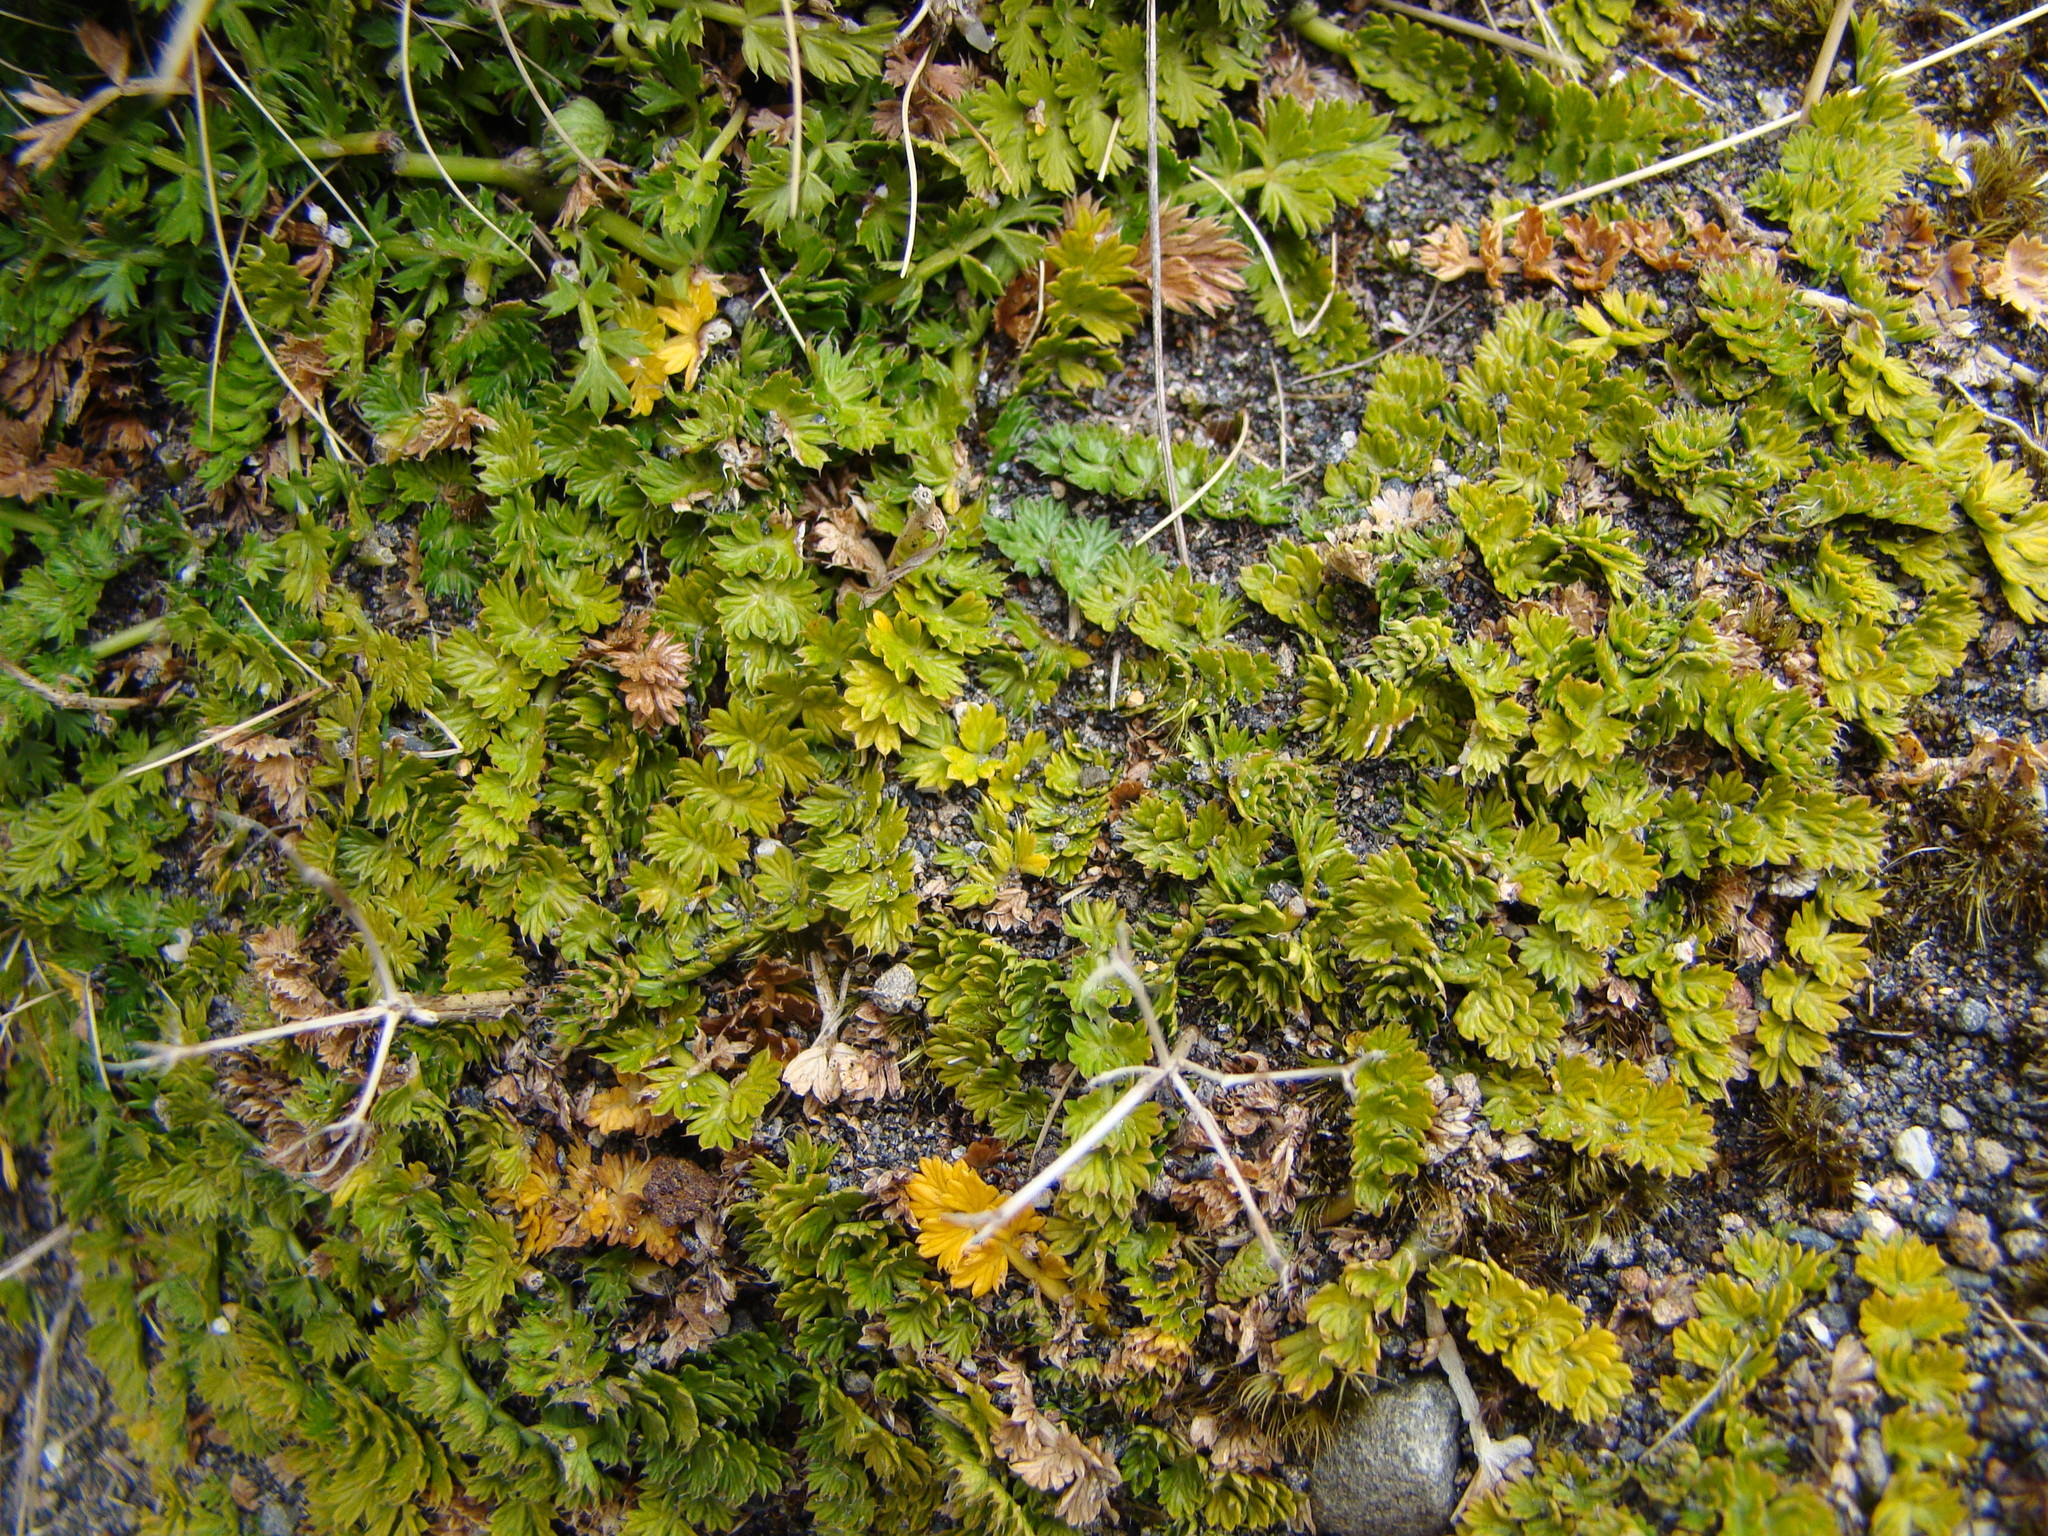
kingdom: Plantae
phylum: Tracheophyta
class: Magnoliopsida
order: Apiales
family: Apiaceae
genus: Anisotome
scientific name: Anisotome aromatica
